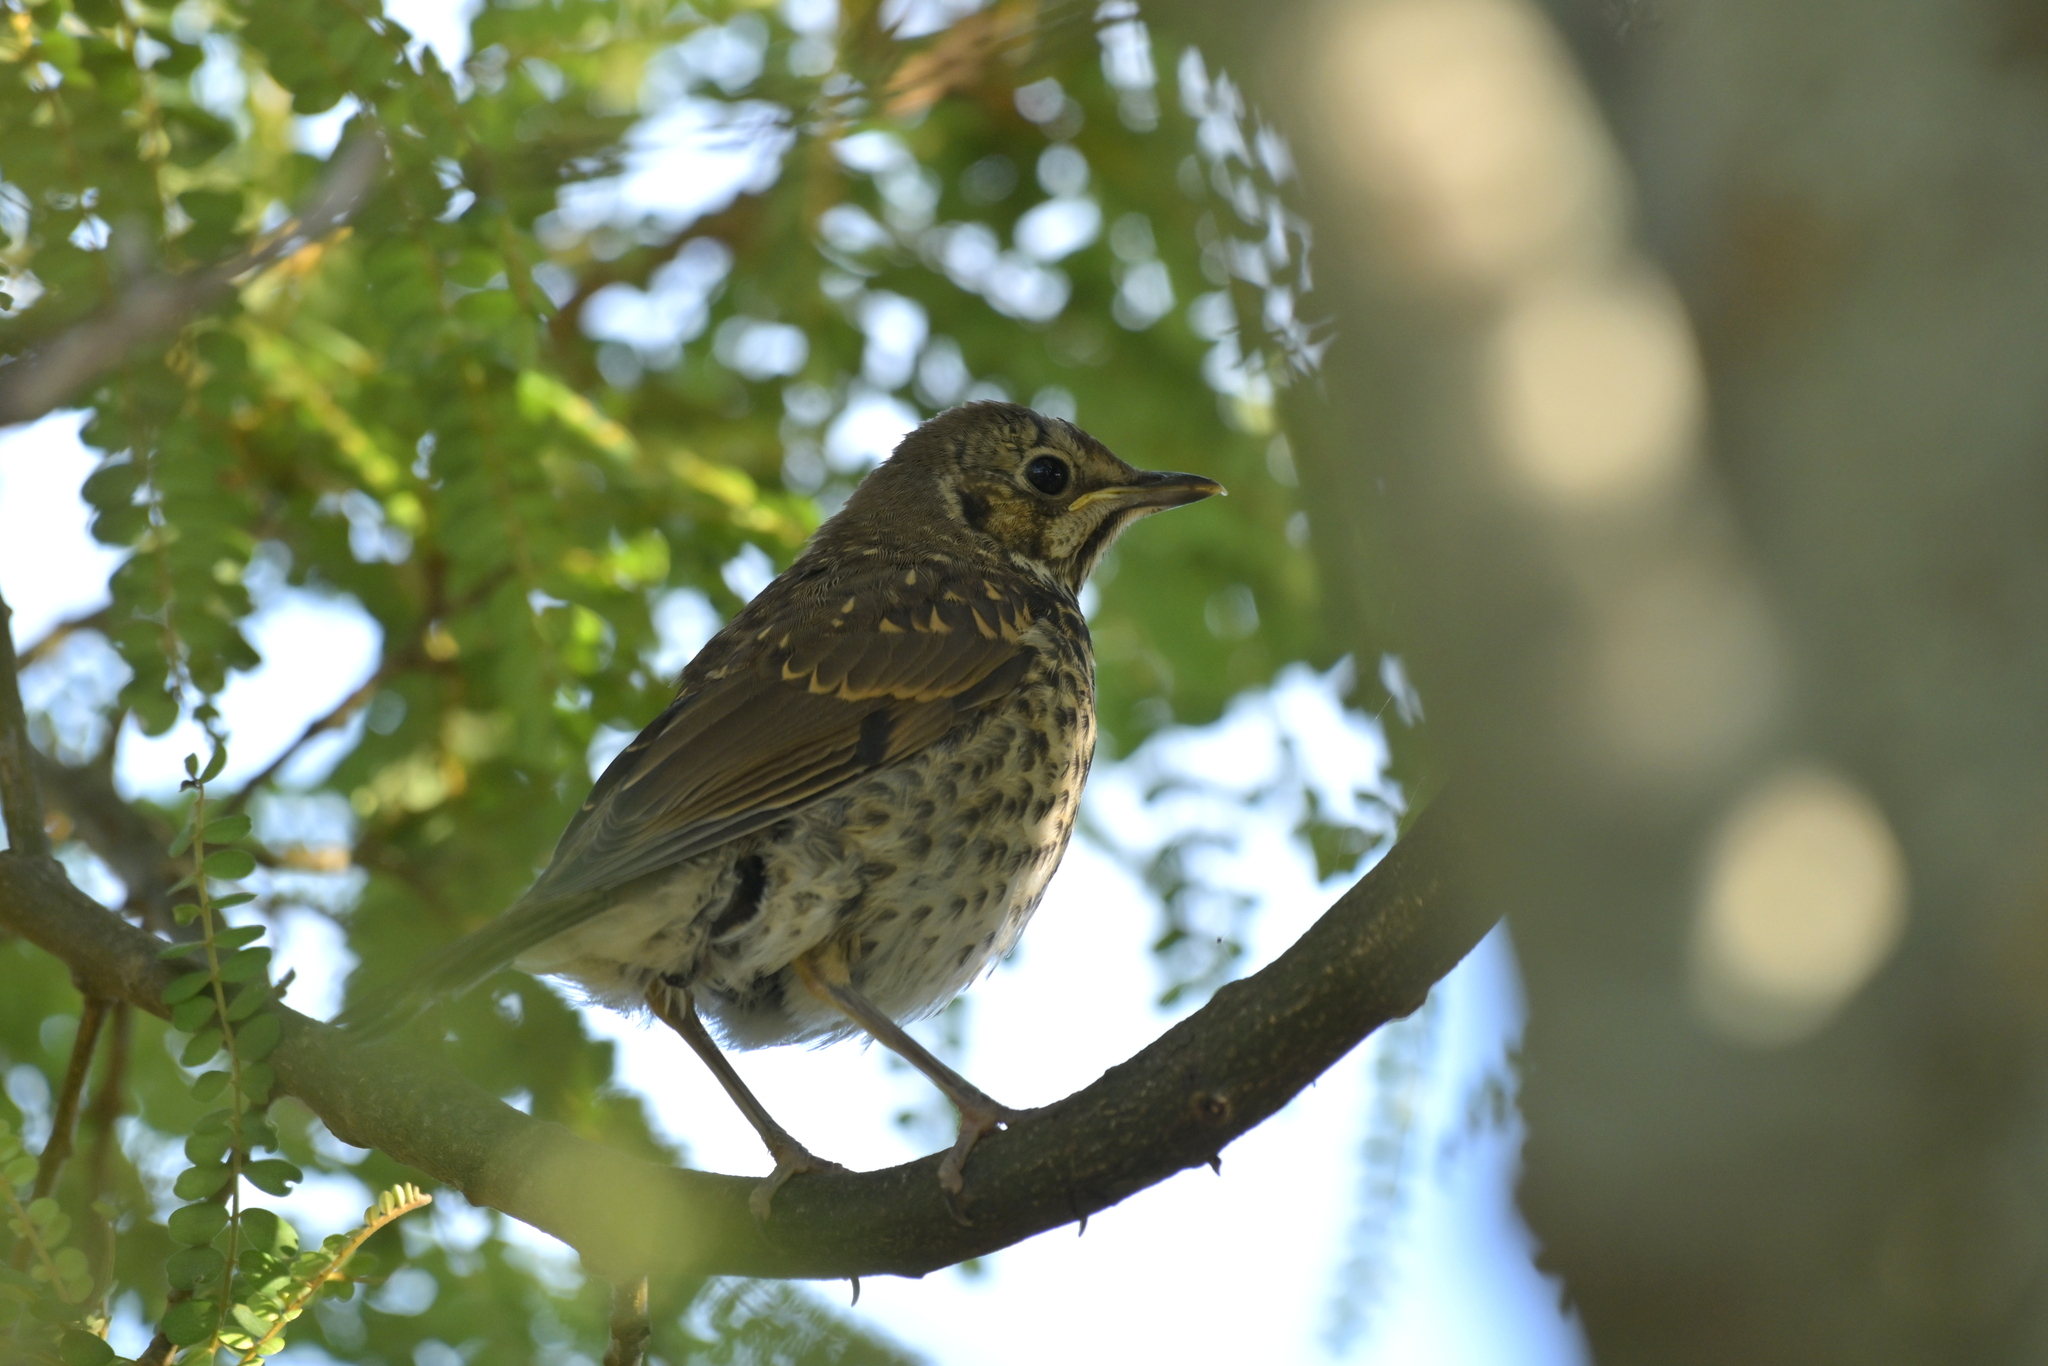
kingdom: Animalia
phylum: Chordata
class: Aves
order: Passeriformes
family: Turdidae
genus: Turdus
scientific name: Turdus philomelos
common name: Song thrush
